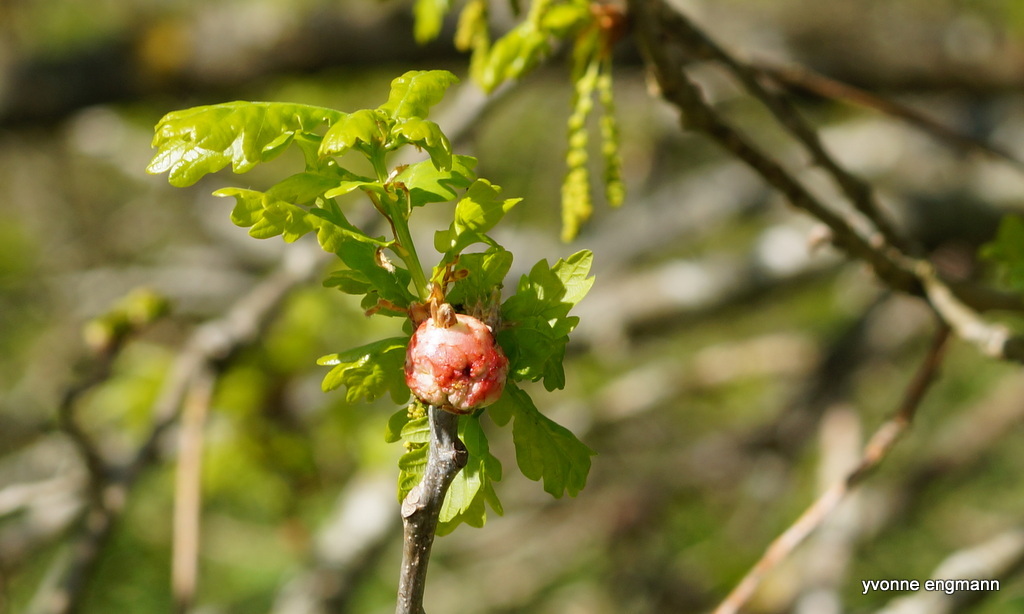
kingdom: Animalia
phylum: Arthropoda
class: Insecta
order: Hymenoptera
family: Cynipidae
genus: Biorhiza
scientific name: Biorhiza pallida
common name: Oak apple
